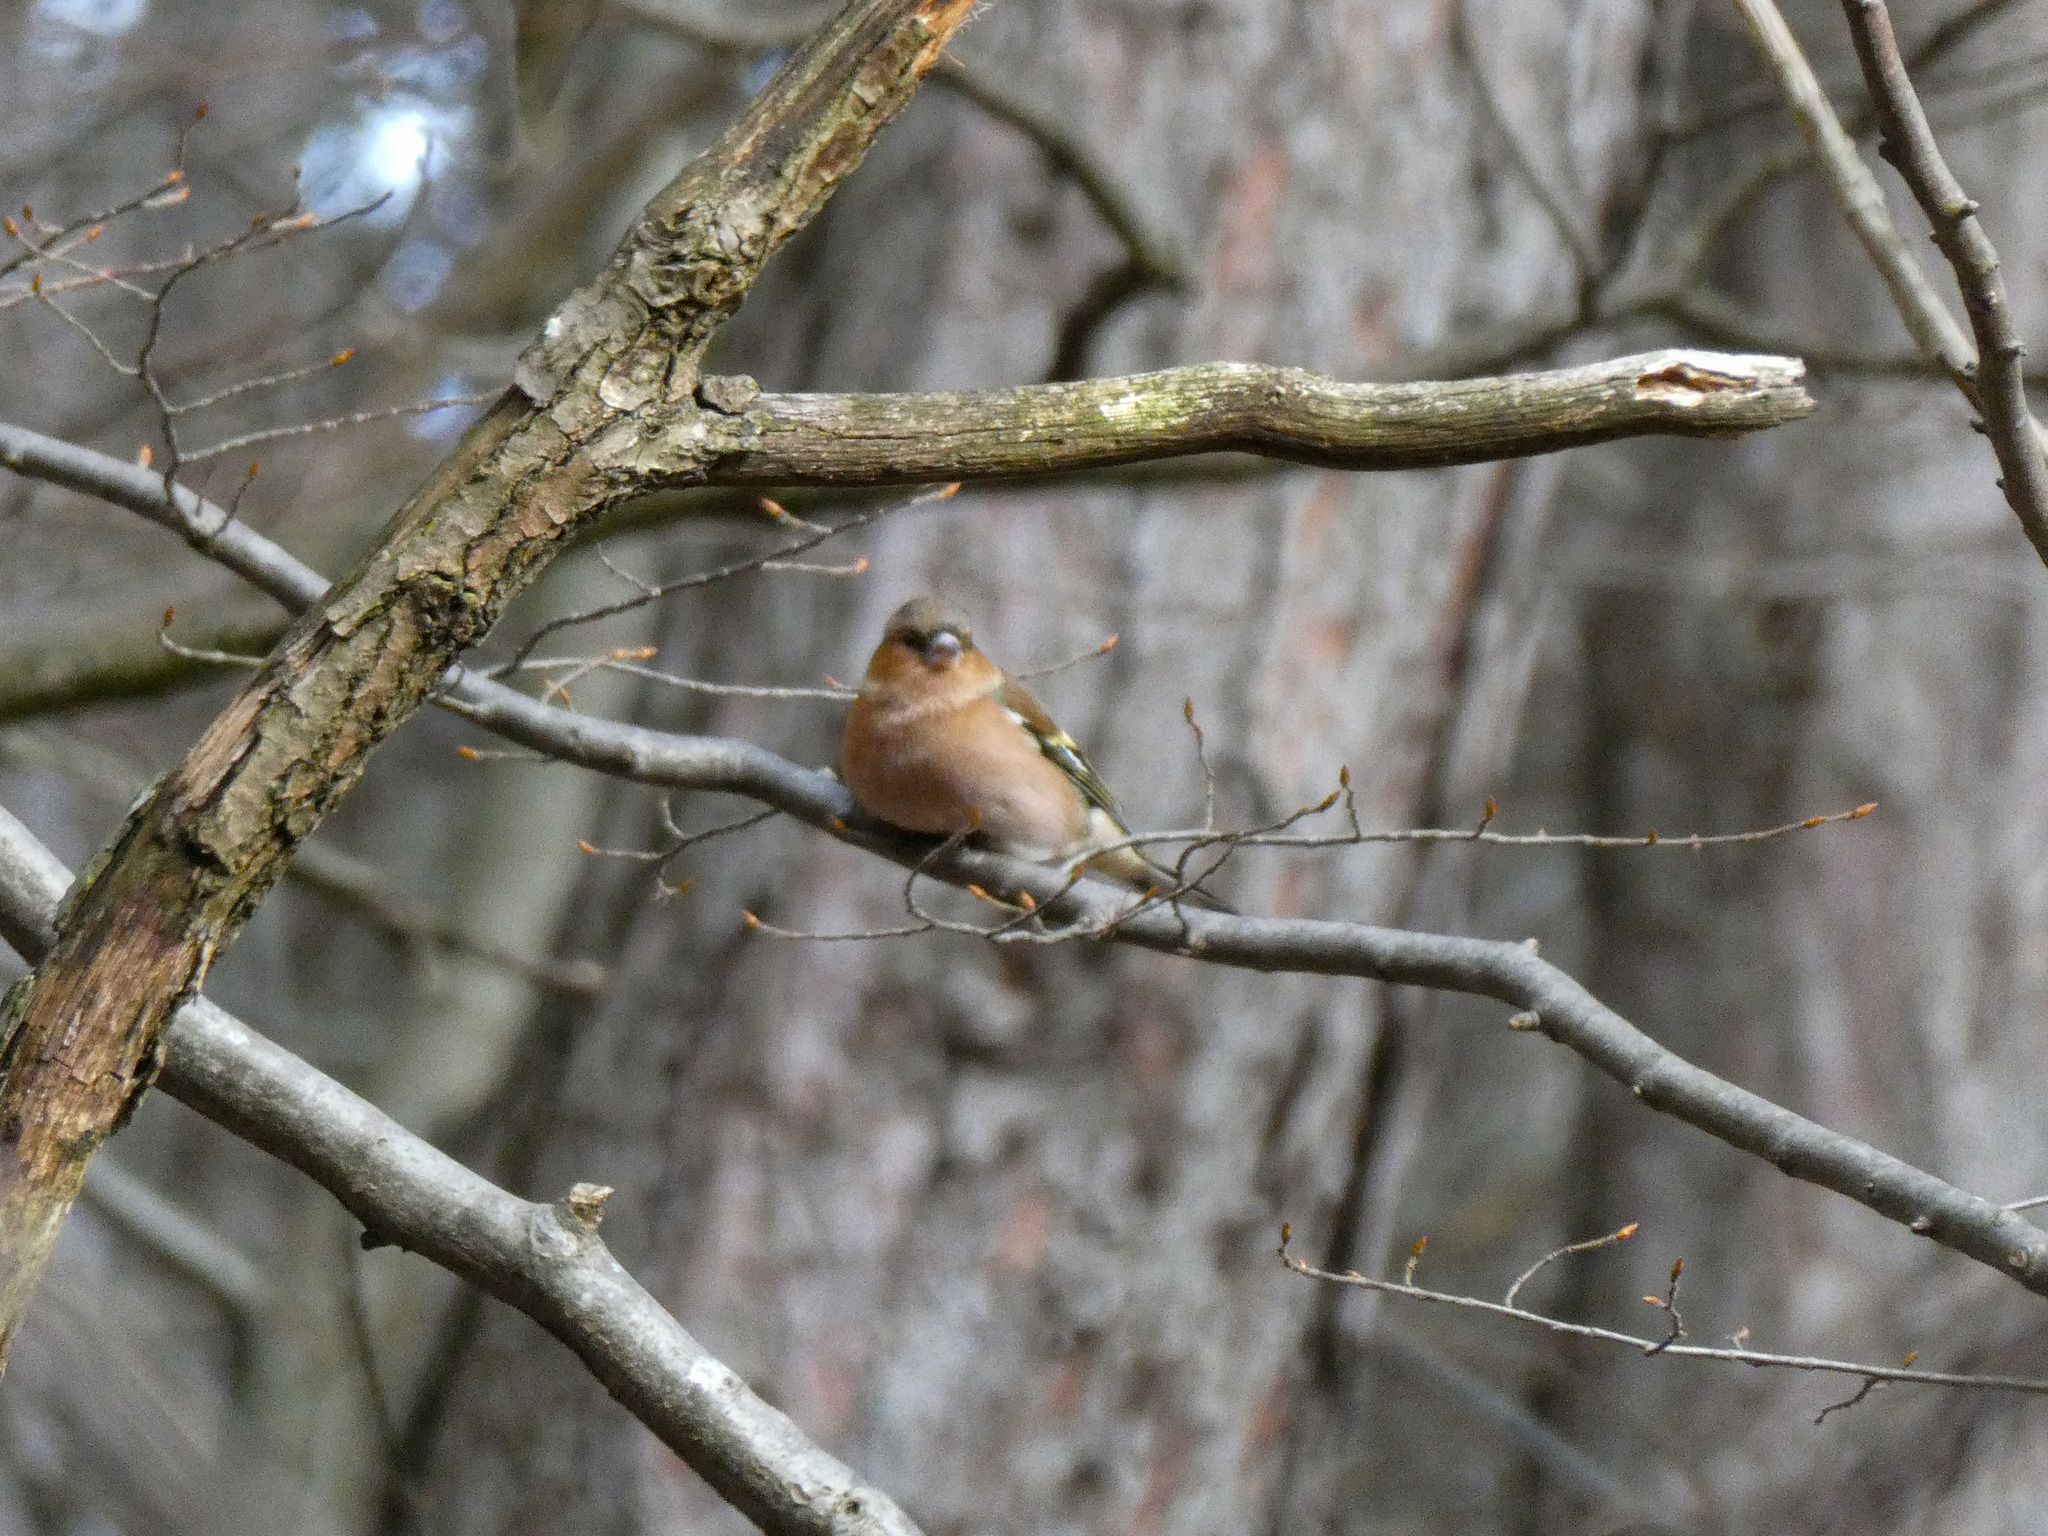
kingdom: Animalia
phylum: Chordata
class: Aves
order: Passeriformes
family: Fringillidae
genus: Fringilla
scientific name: Fringilla coelebs
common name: Common chaffinch
